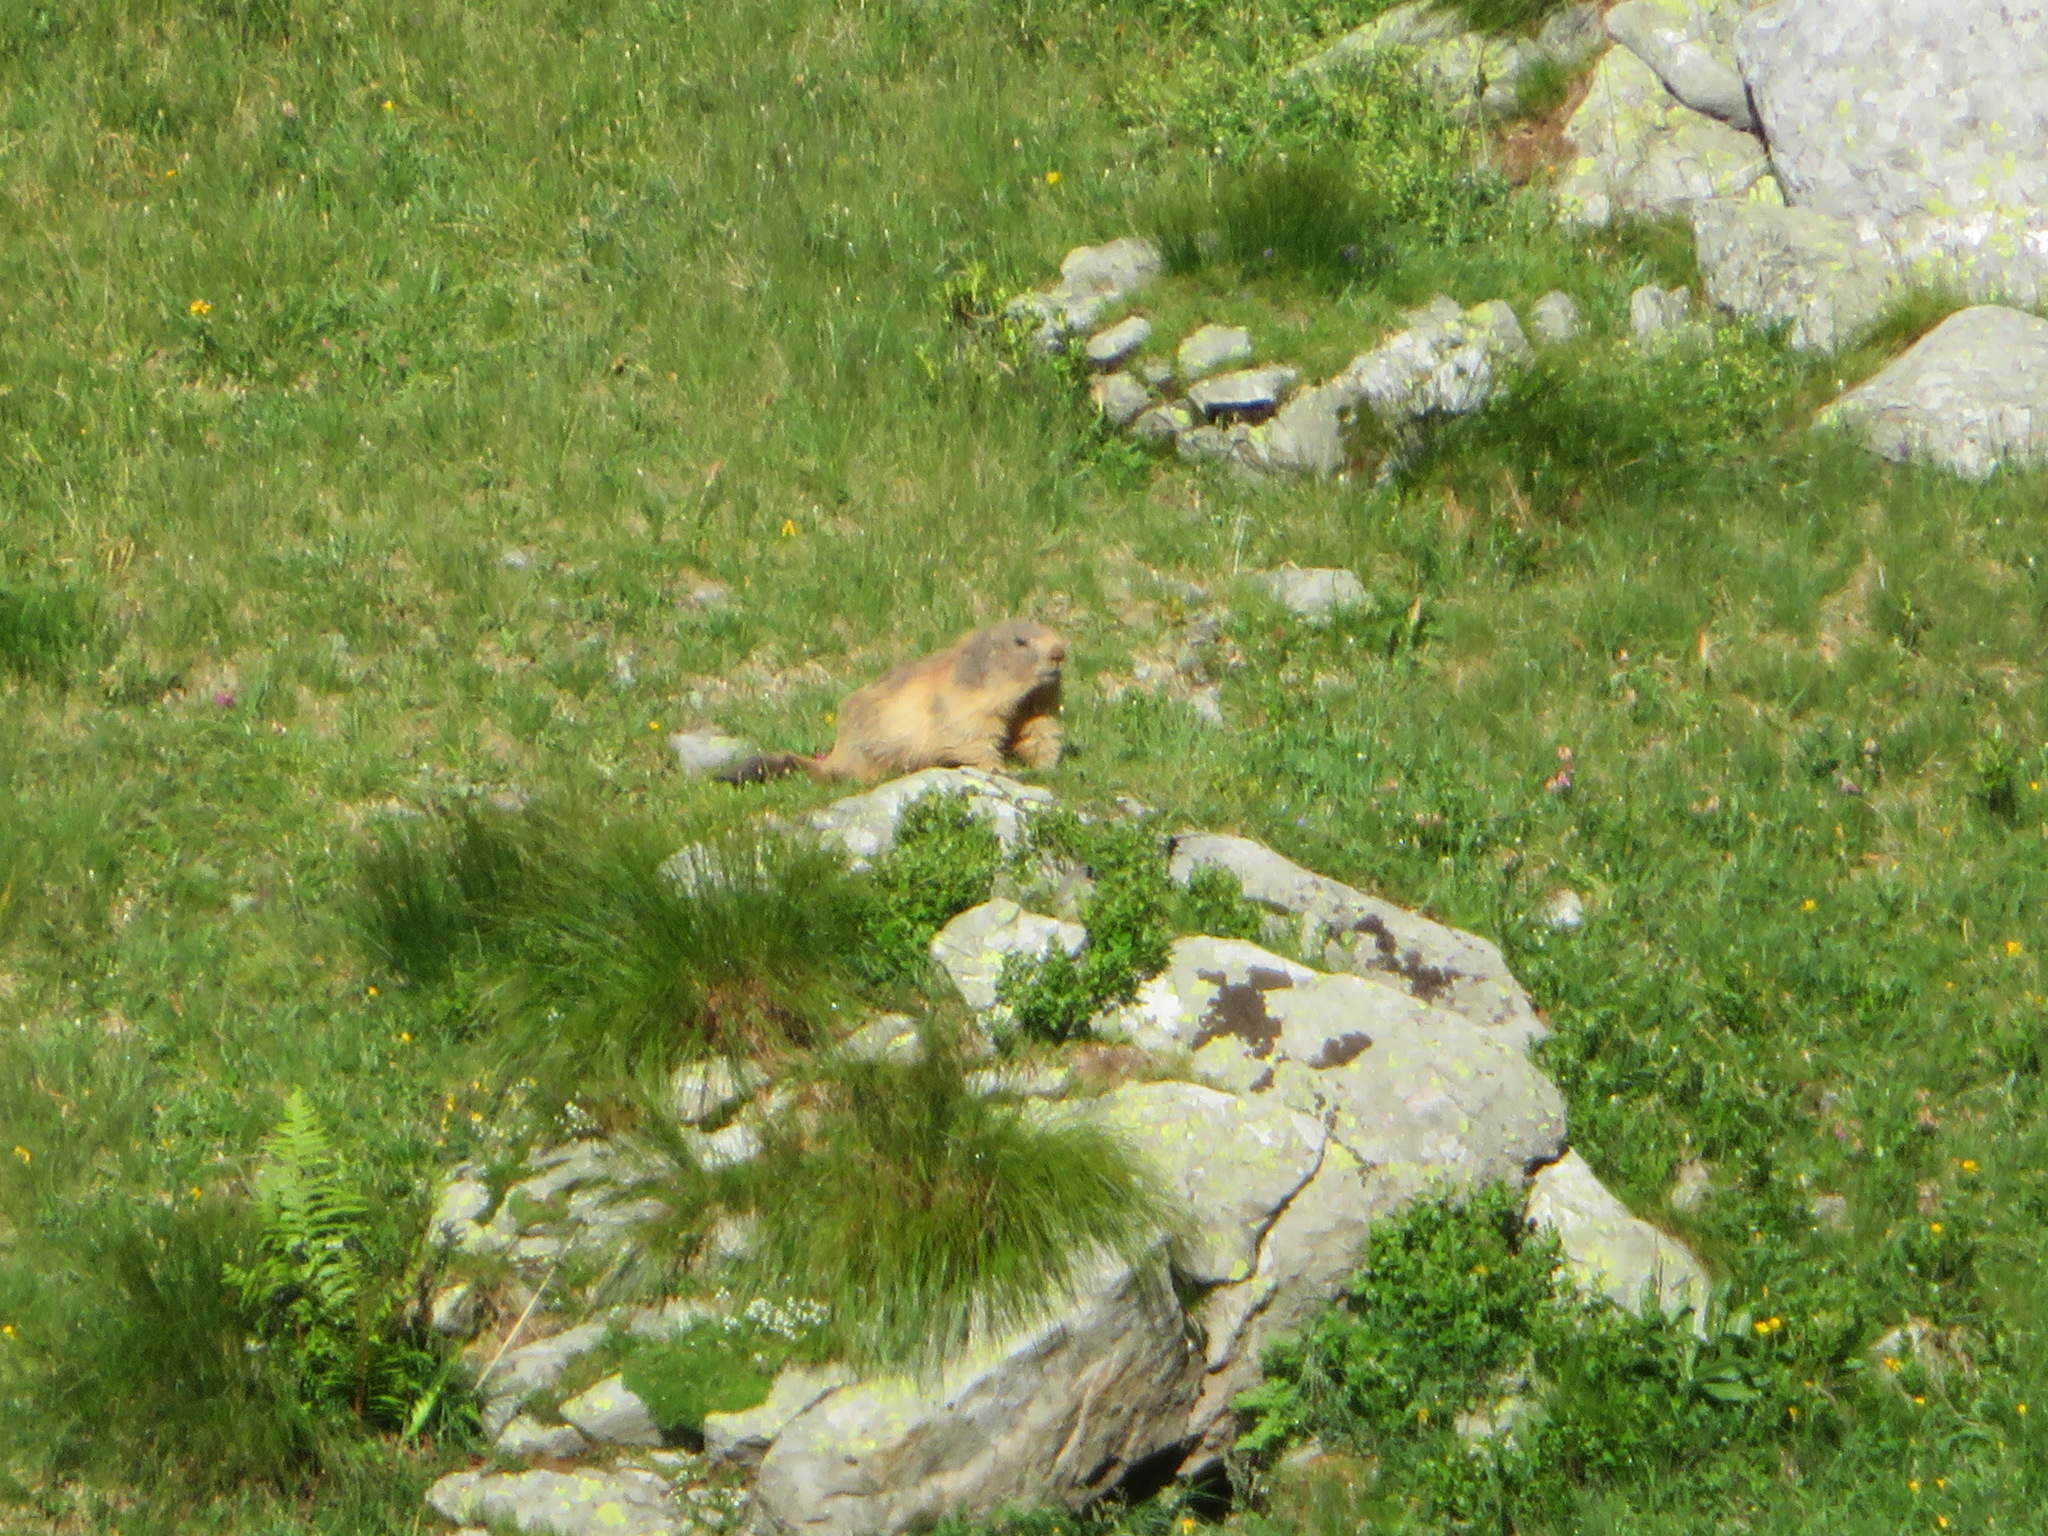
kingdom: Animalia
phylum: Chordata
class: Mammalia
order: Rodentia
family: Sciuridae
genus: Marmota
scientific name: Marmota marmota
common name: Alpine marmot
